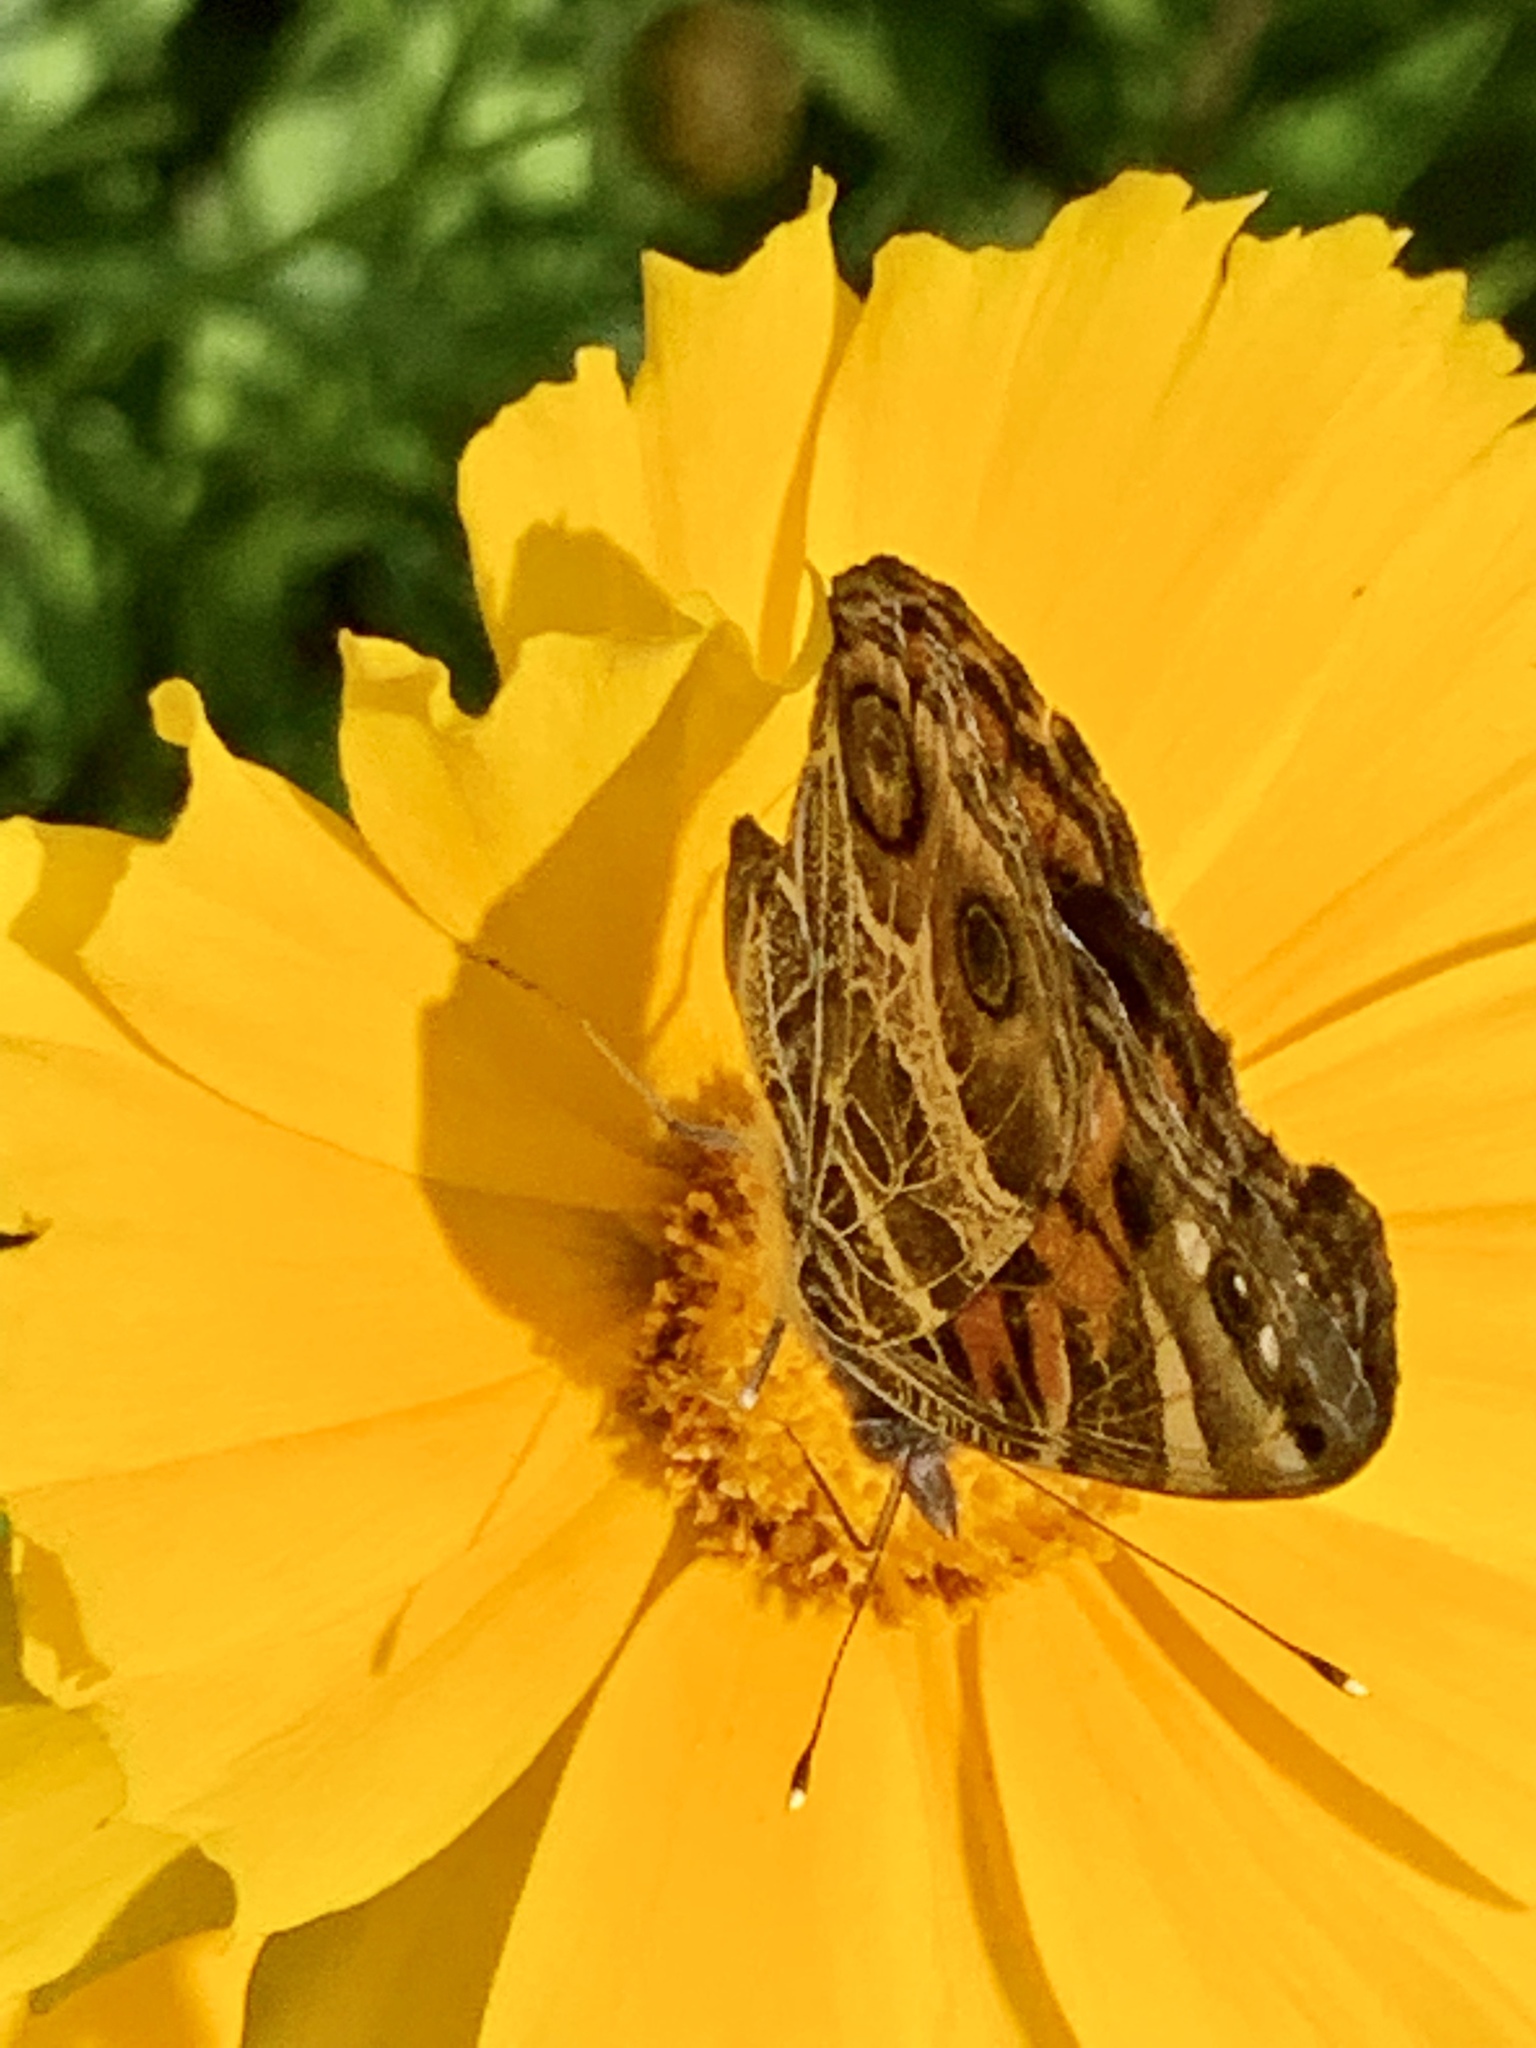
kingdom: Animalia
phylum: Arthropoda
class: Insecta
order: Lepidoptera
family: Nymphalidae
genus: Vanessa
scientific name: Vanessa virginiensis
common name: American lady
